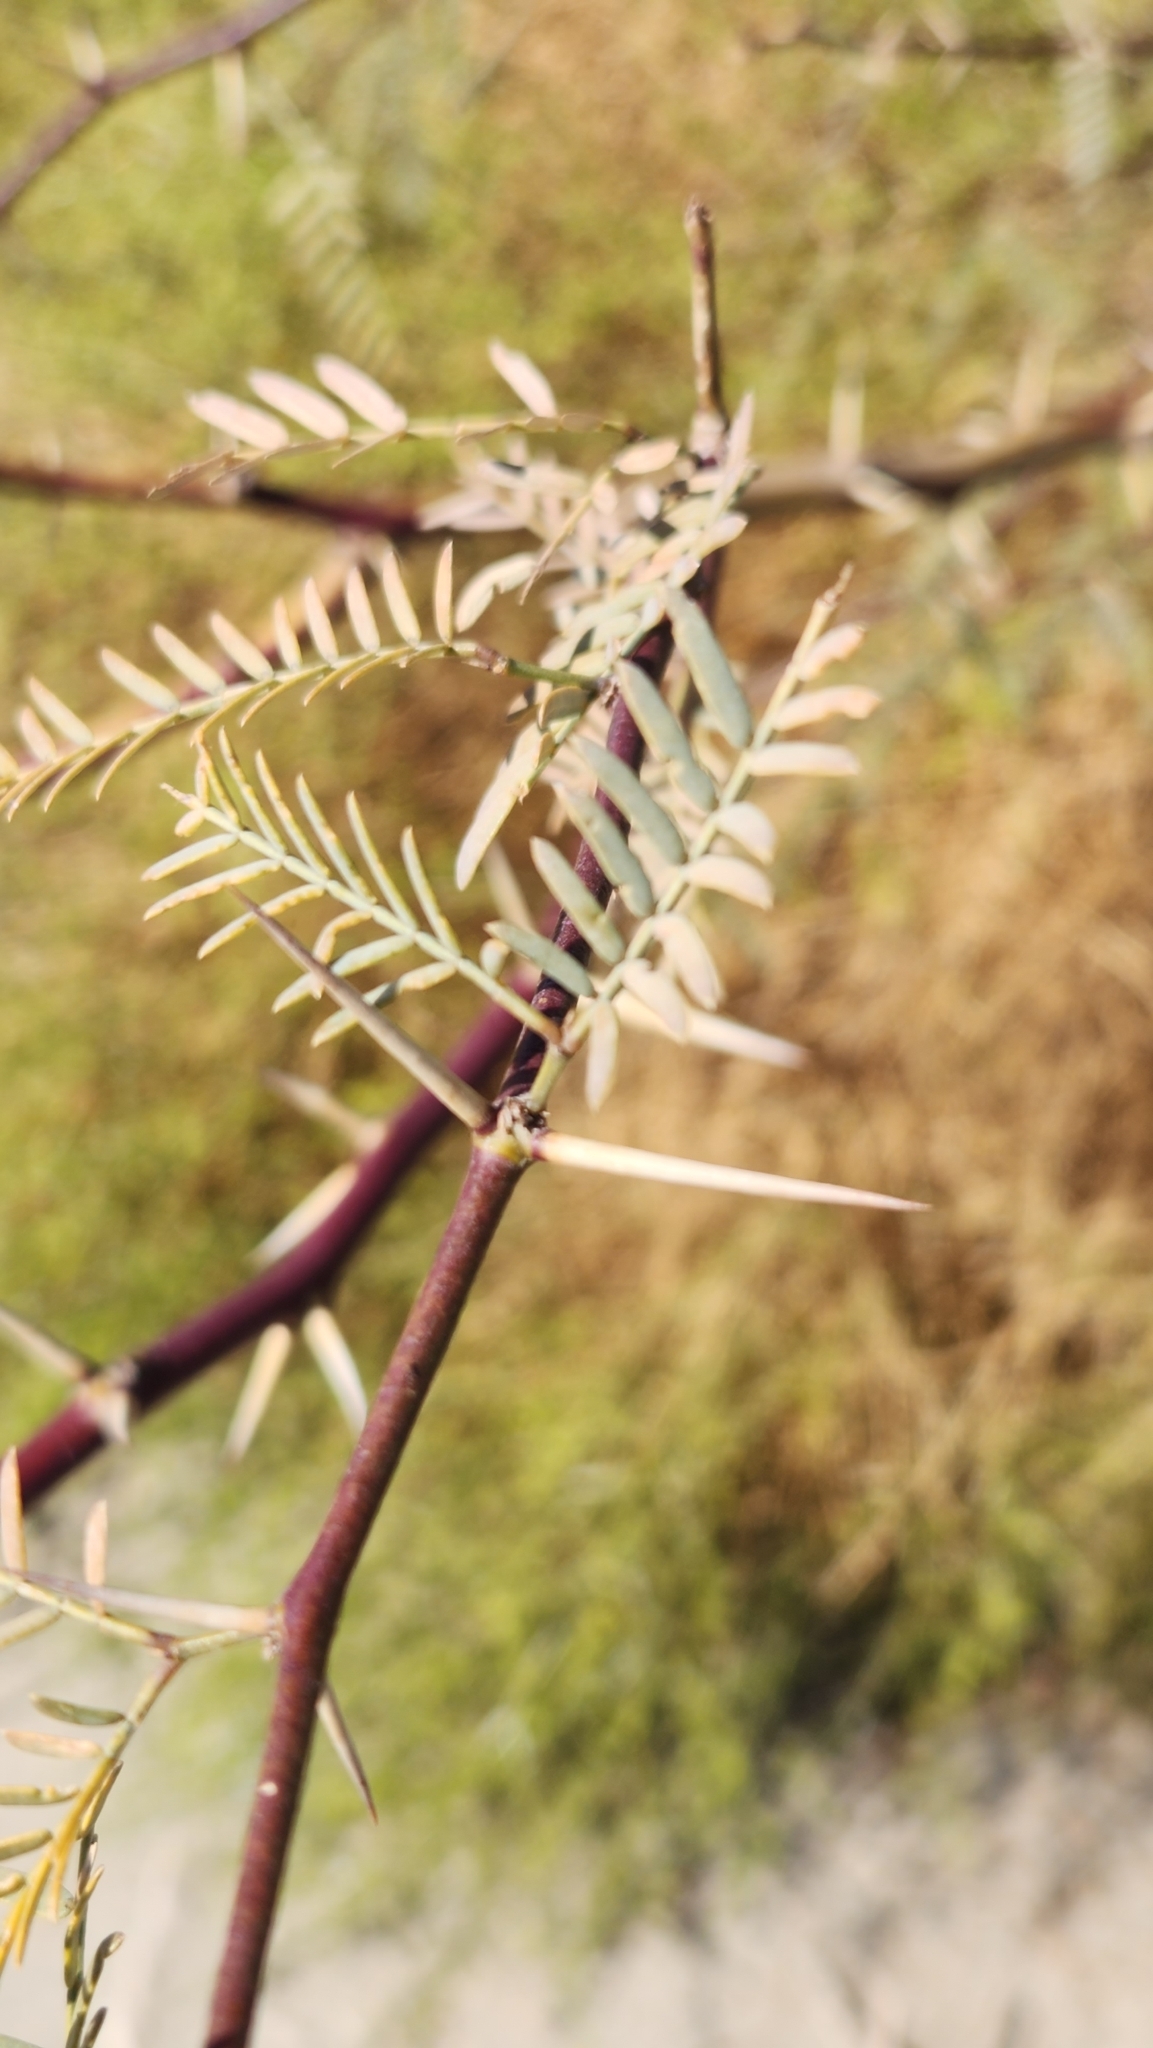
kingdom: Plantae
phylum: Tracheophyta
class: Magnoliopsida
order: Fabales
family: Fabaceae
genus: Prosopis
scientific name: Prosopis pubescens
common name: Screw-bean
